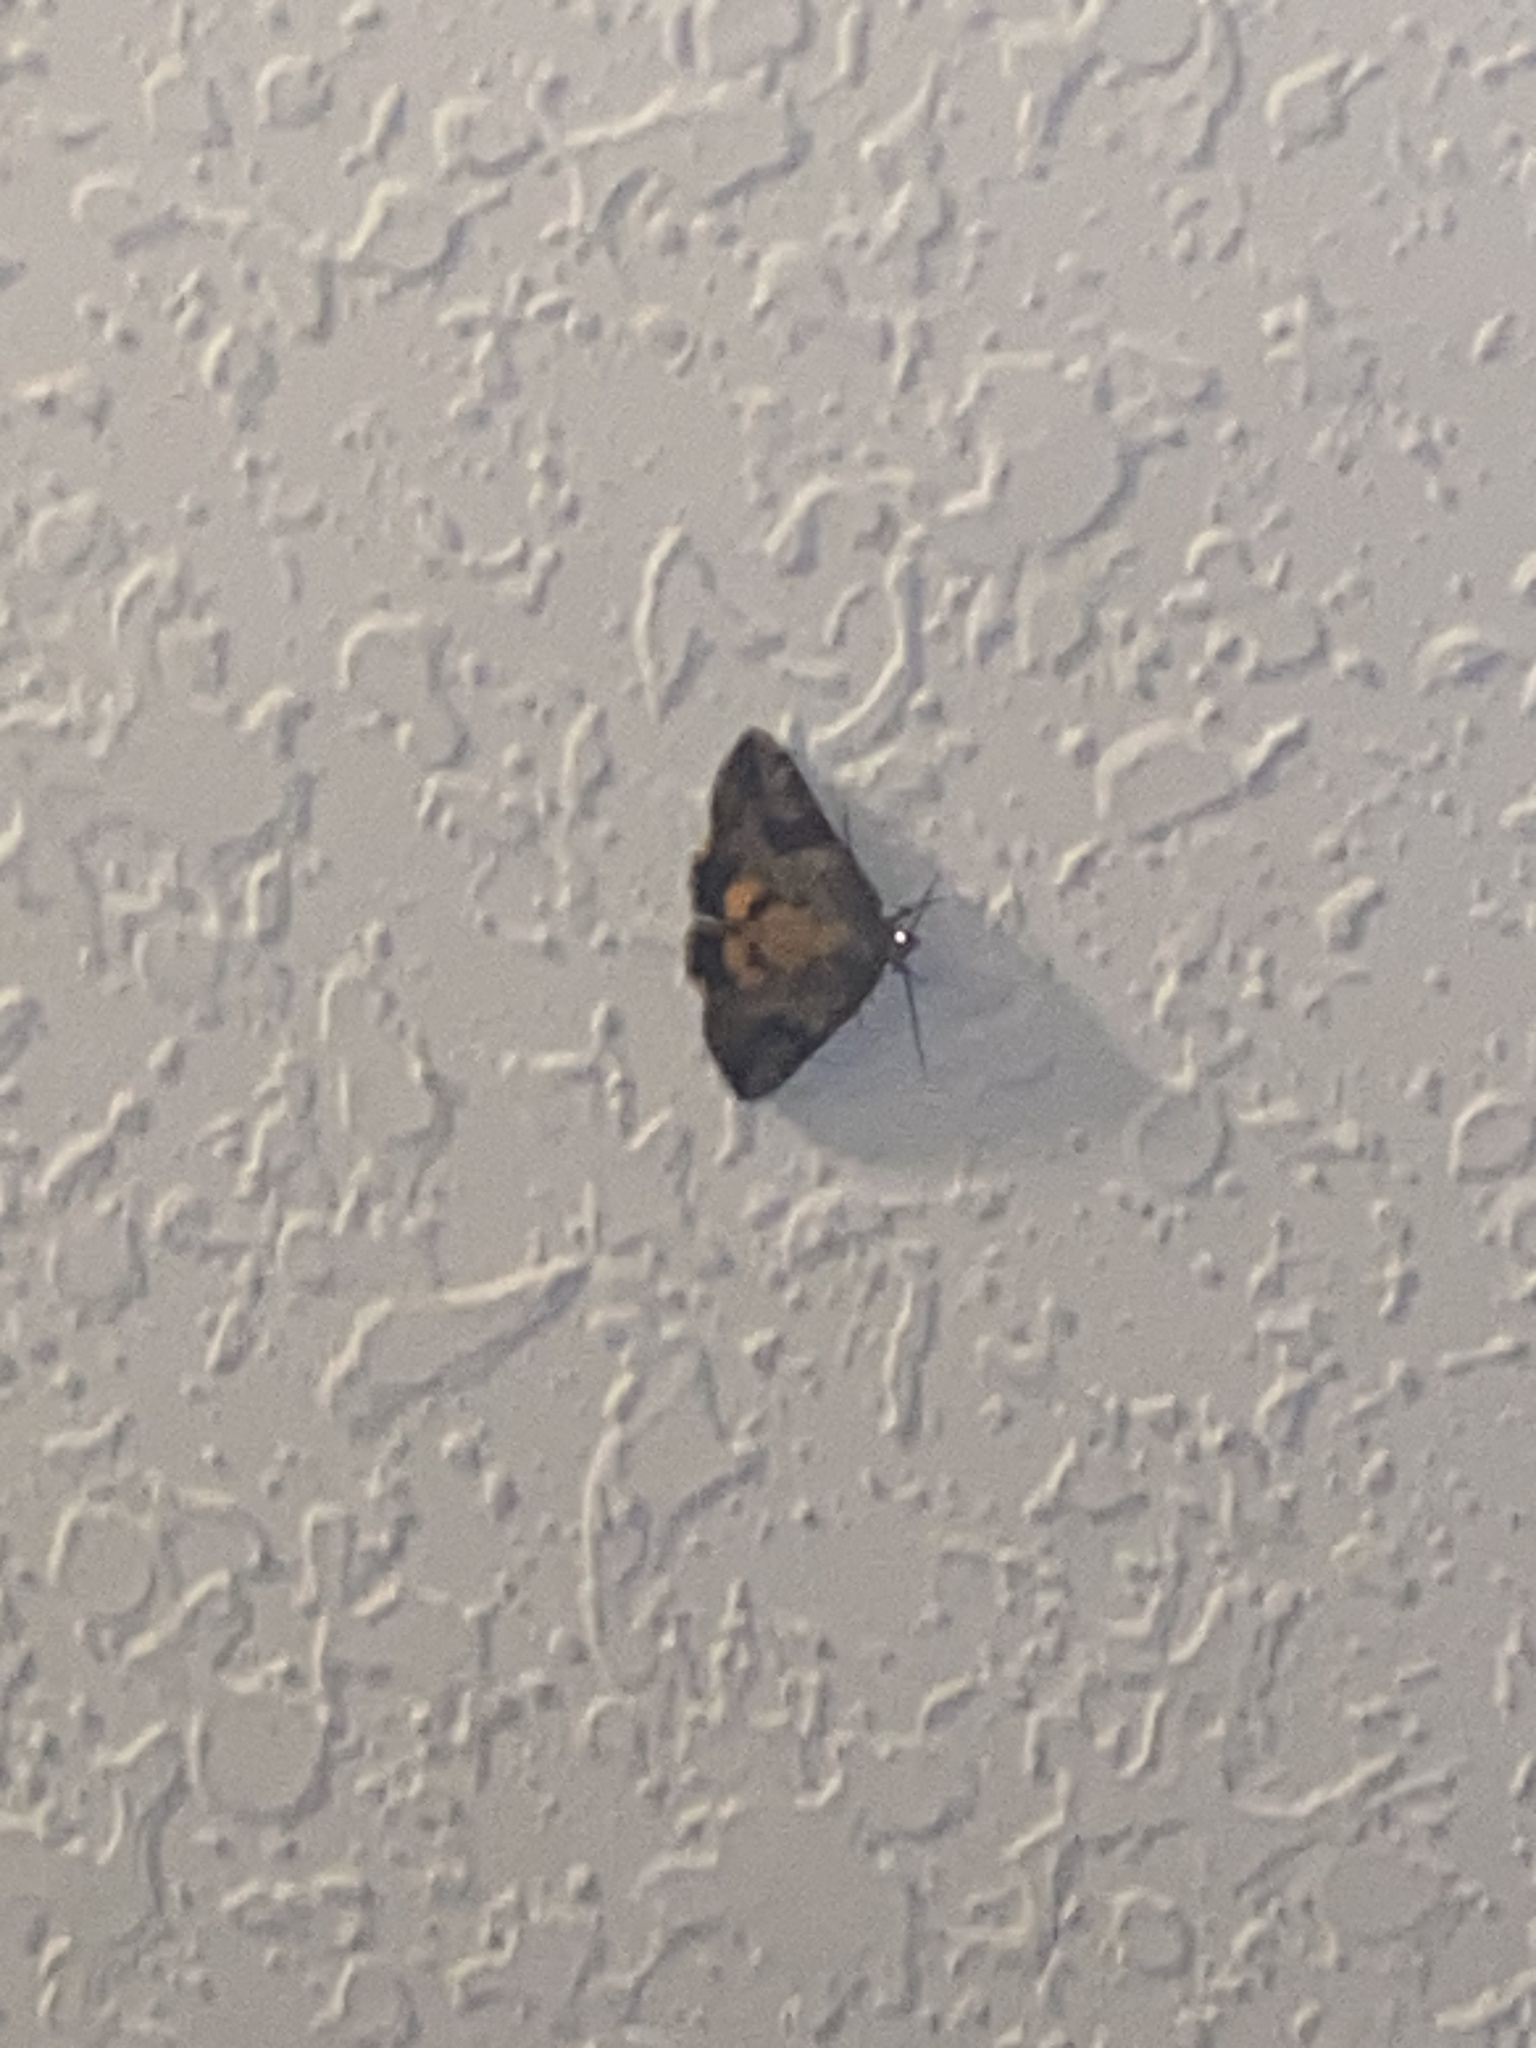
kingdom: Animalia
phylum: Arthropoda
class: Insecta
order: Lepidoptera
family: Erebidae
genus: Catocala
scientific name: Catocala micronympha
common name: Little nymph underwing
